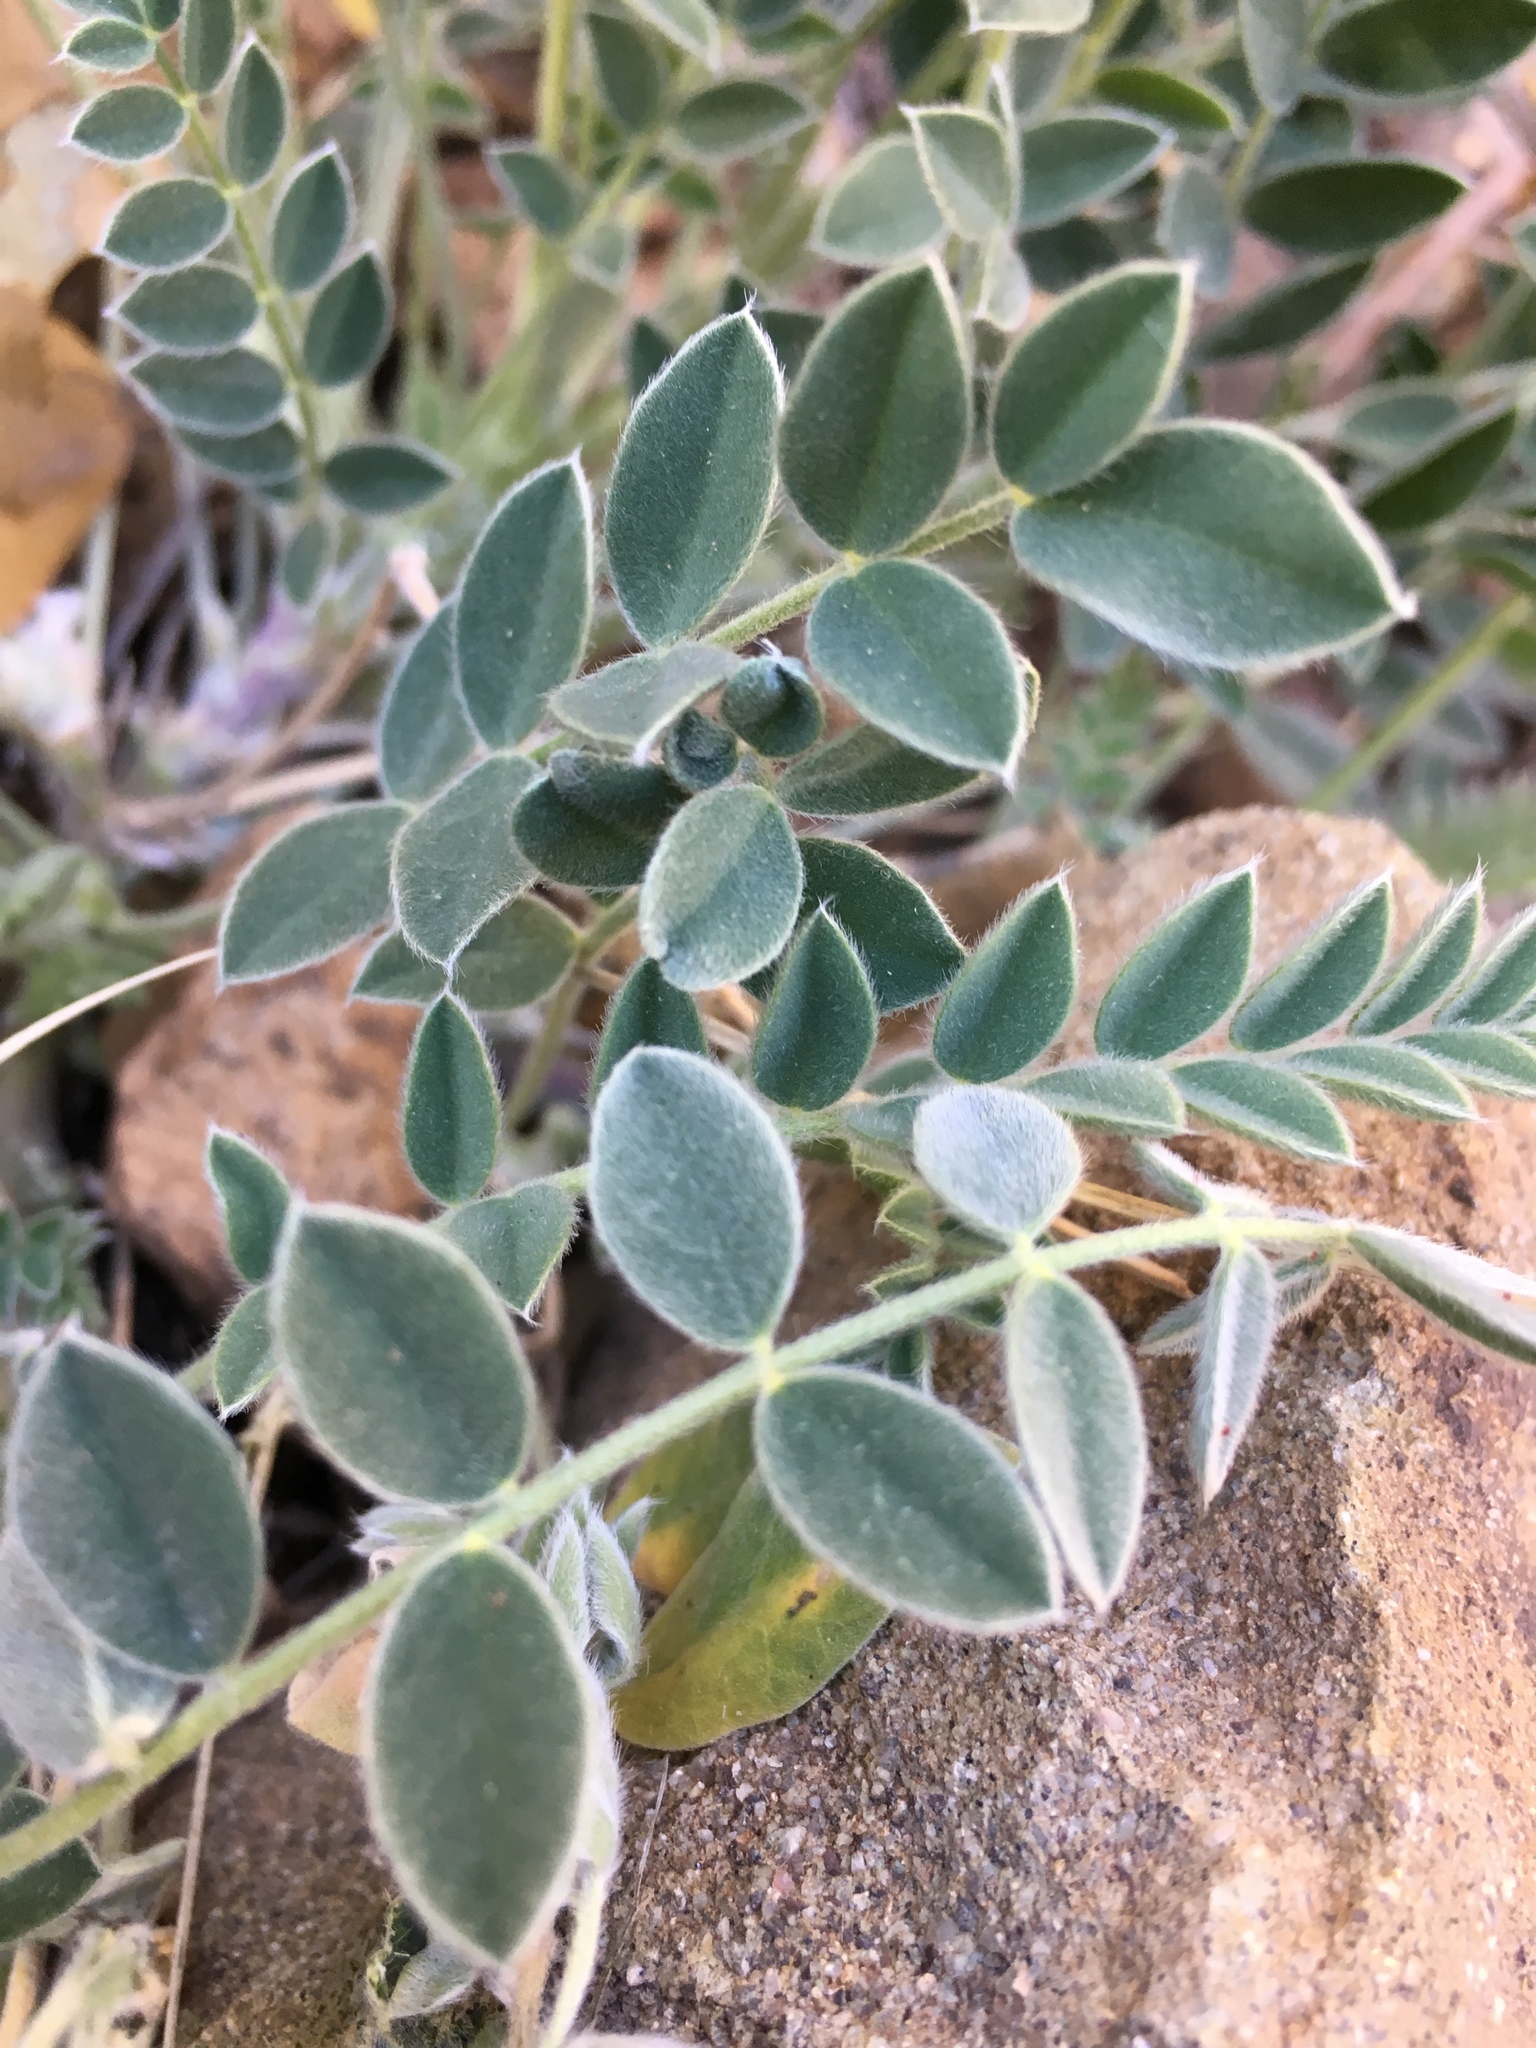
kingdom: Plantae
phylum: Tracheophyta
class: Magnoliopsida
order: Fabales
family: Fabaceae
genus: Astragalus
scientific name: Astragalus mollissimus
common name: Woolly locoweed
